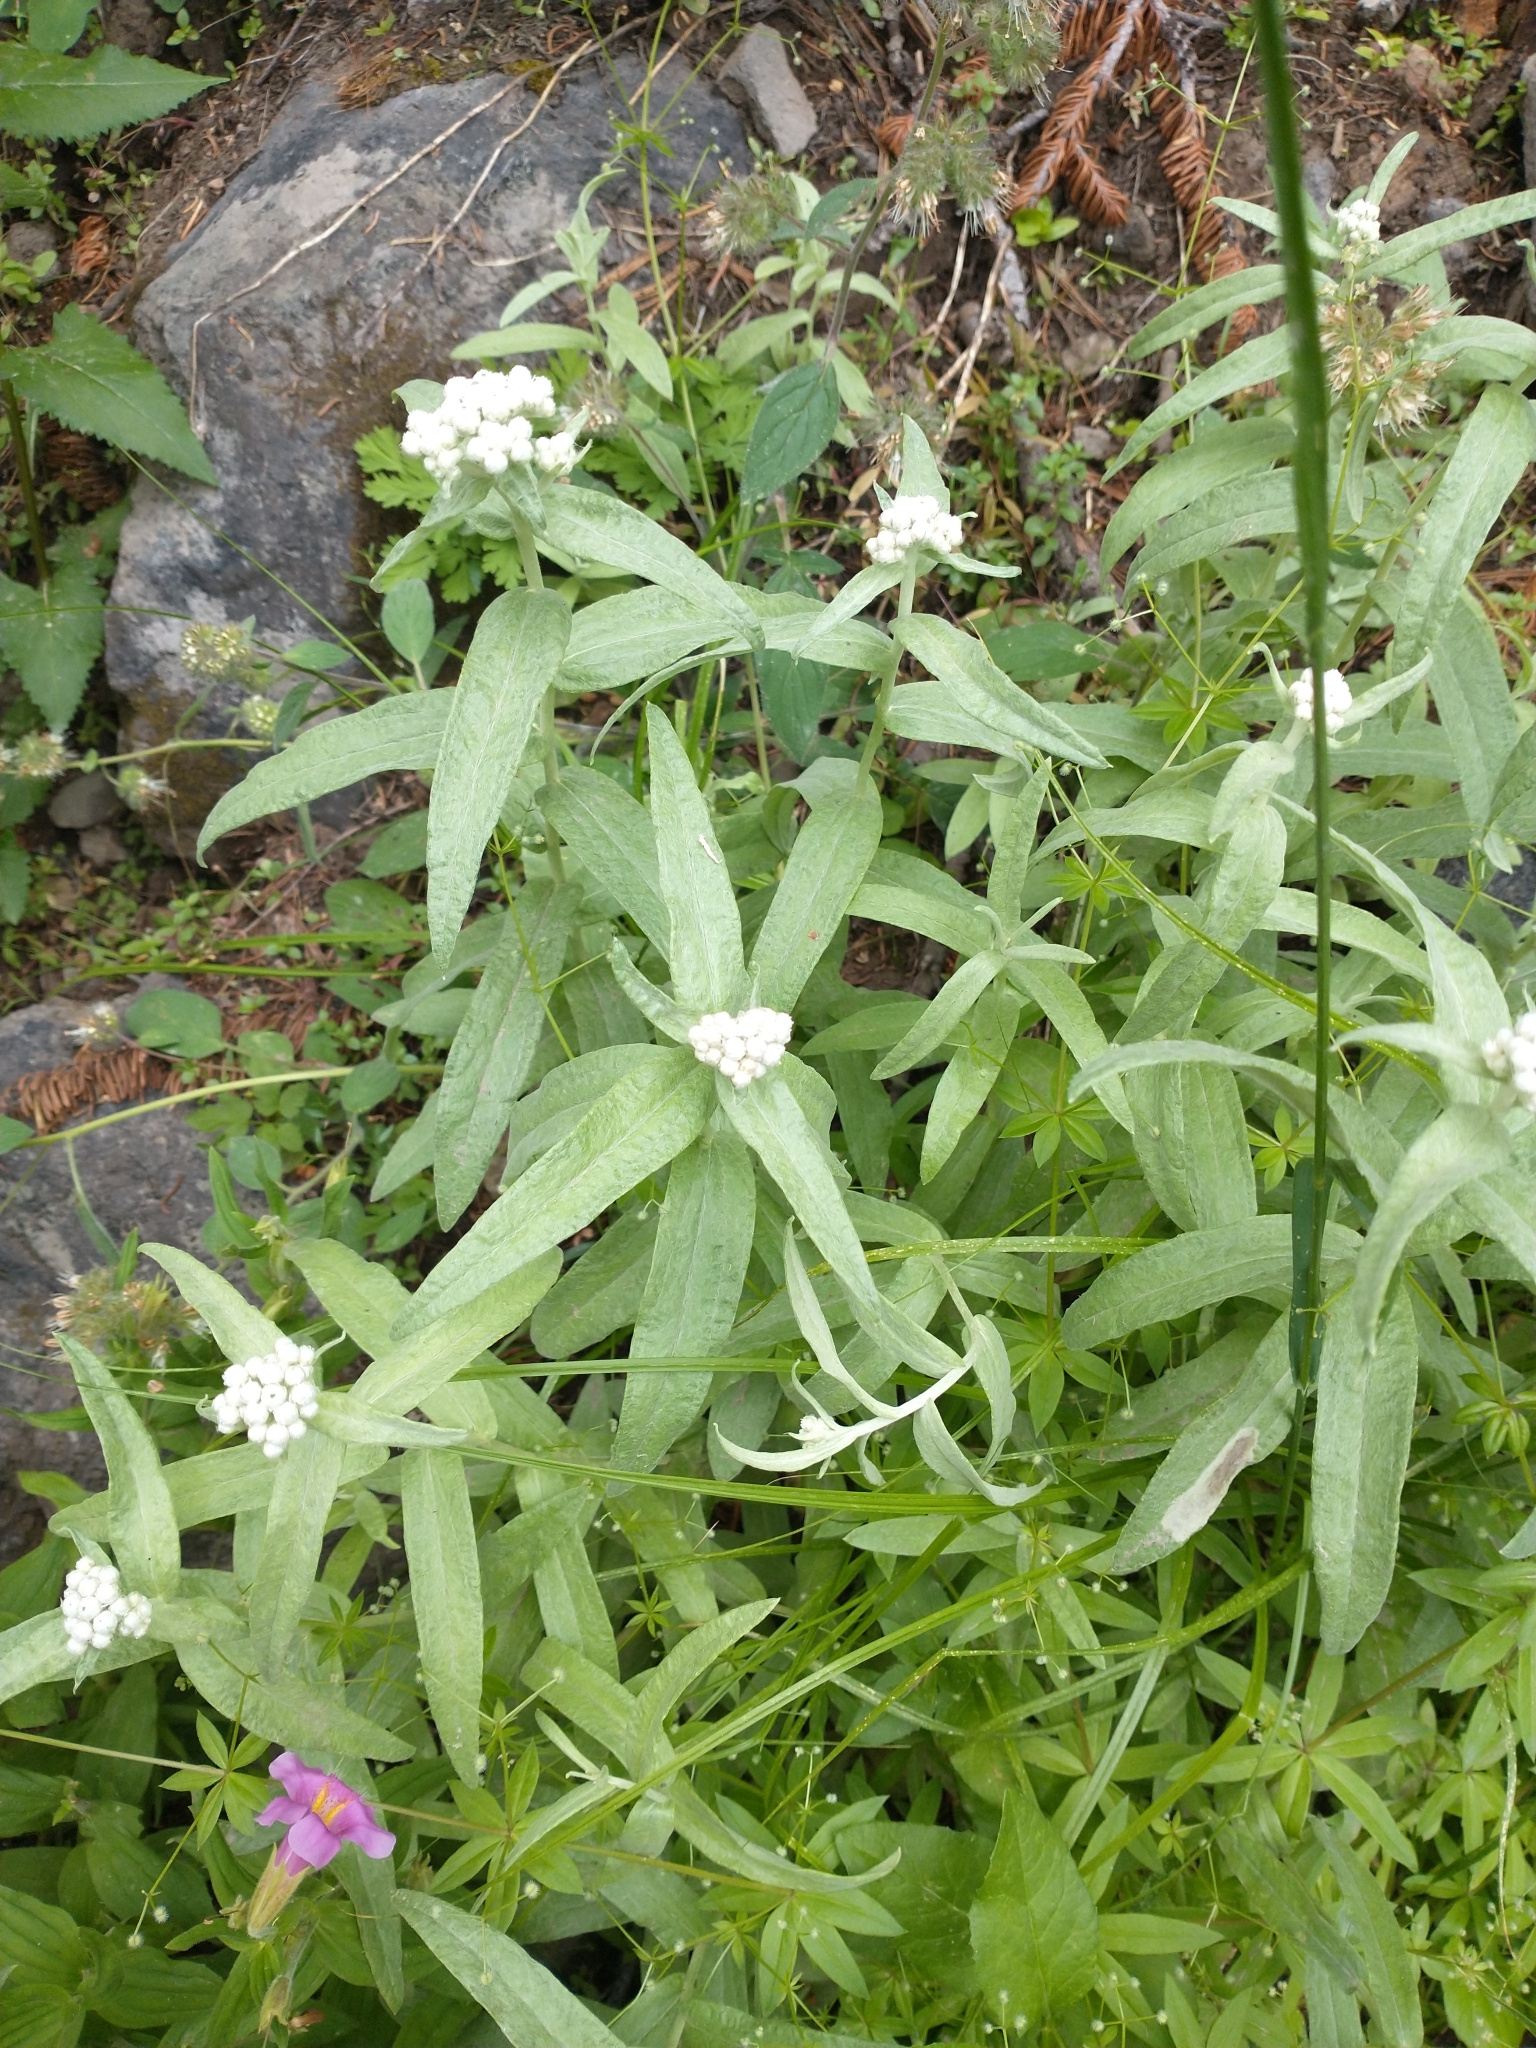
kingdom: Plantae
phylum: Tracheophyta
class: Magnoliopsida
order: Asterales
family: Asteraceae
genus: Anaphalis
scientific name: Anaphalis margaritacea
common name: Pearly everlasting
